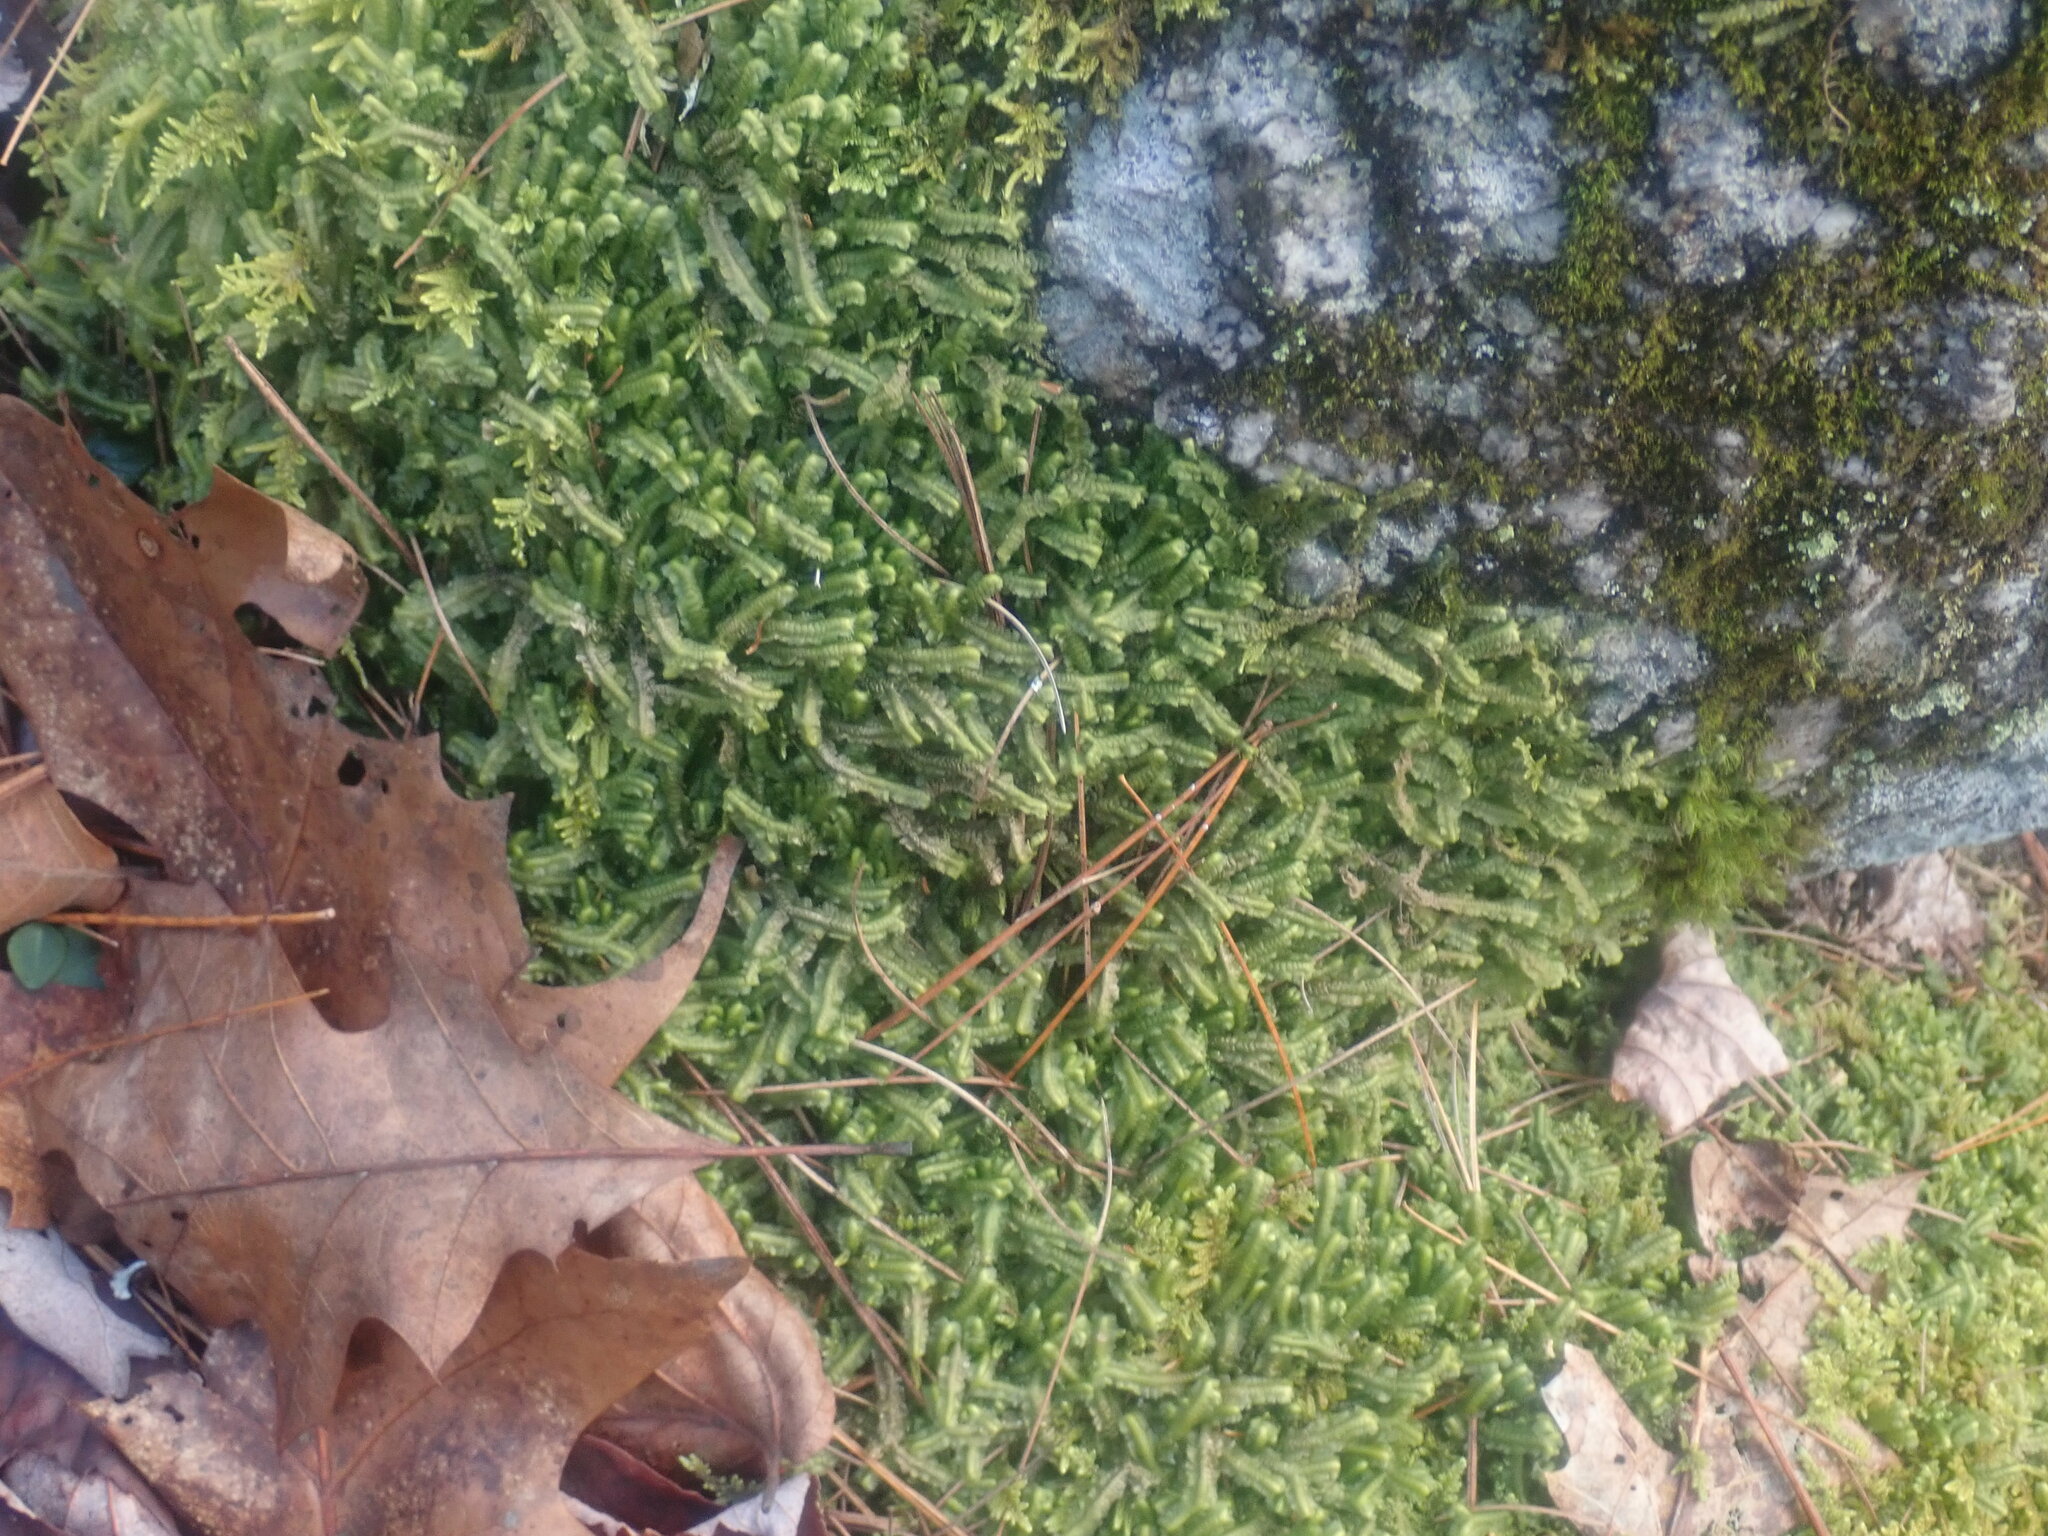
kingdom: Plantae
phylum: Marchantiophyta
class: Jungermanniopsida
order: Jungermanniales
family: Lepidoziaceae
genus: Bazzania
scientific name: Bazzania trilobata
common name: Three-lobed whipwort
